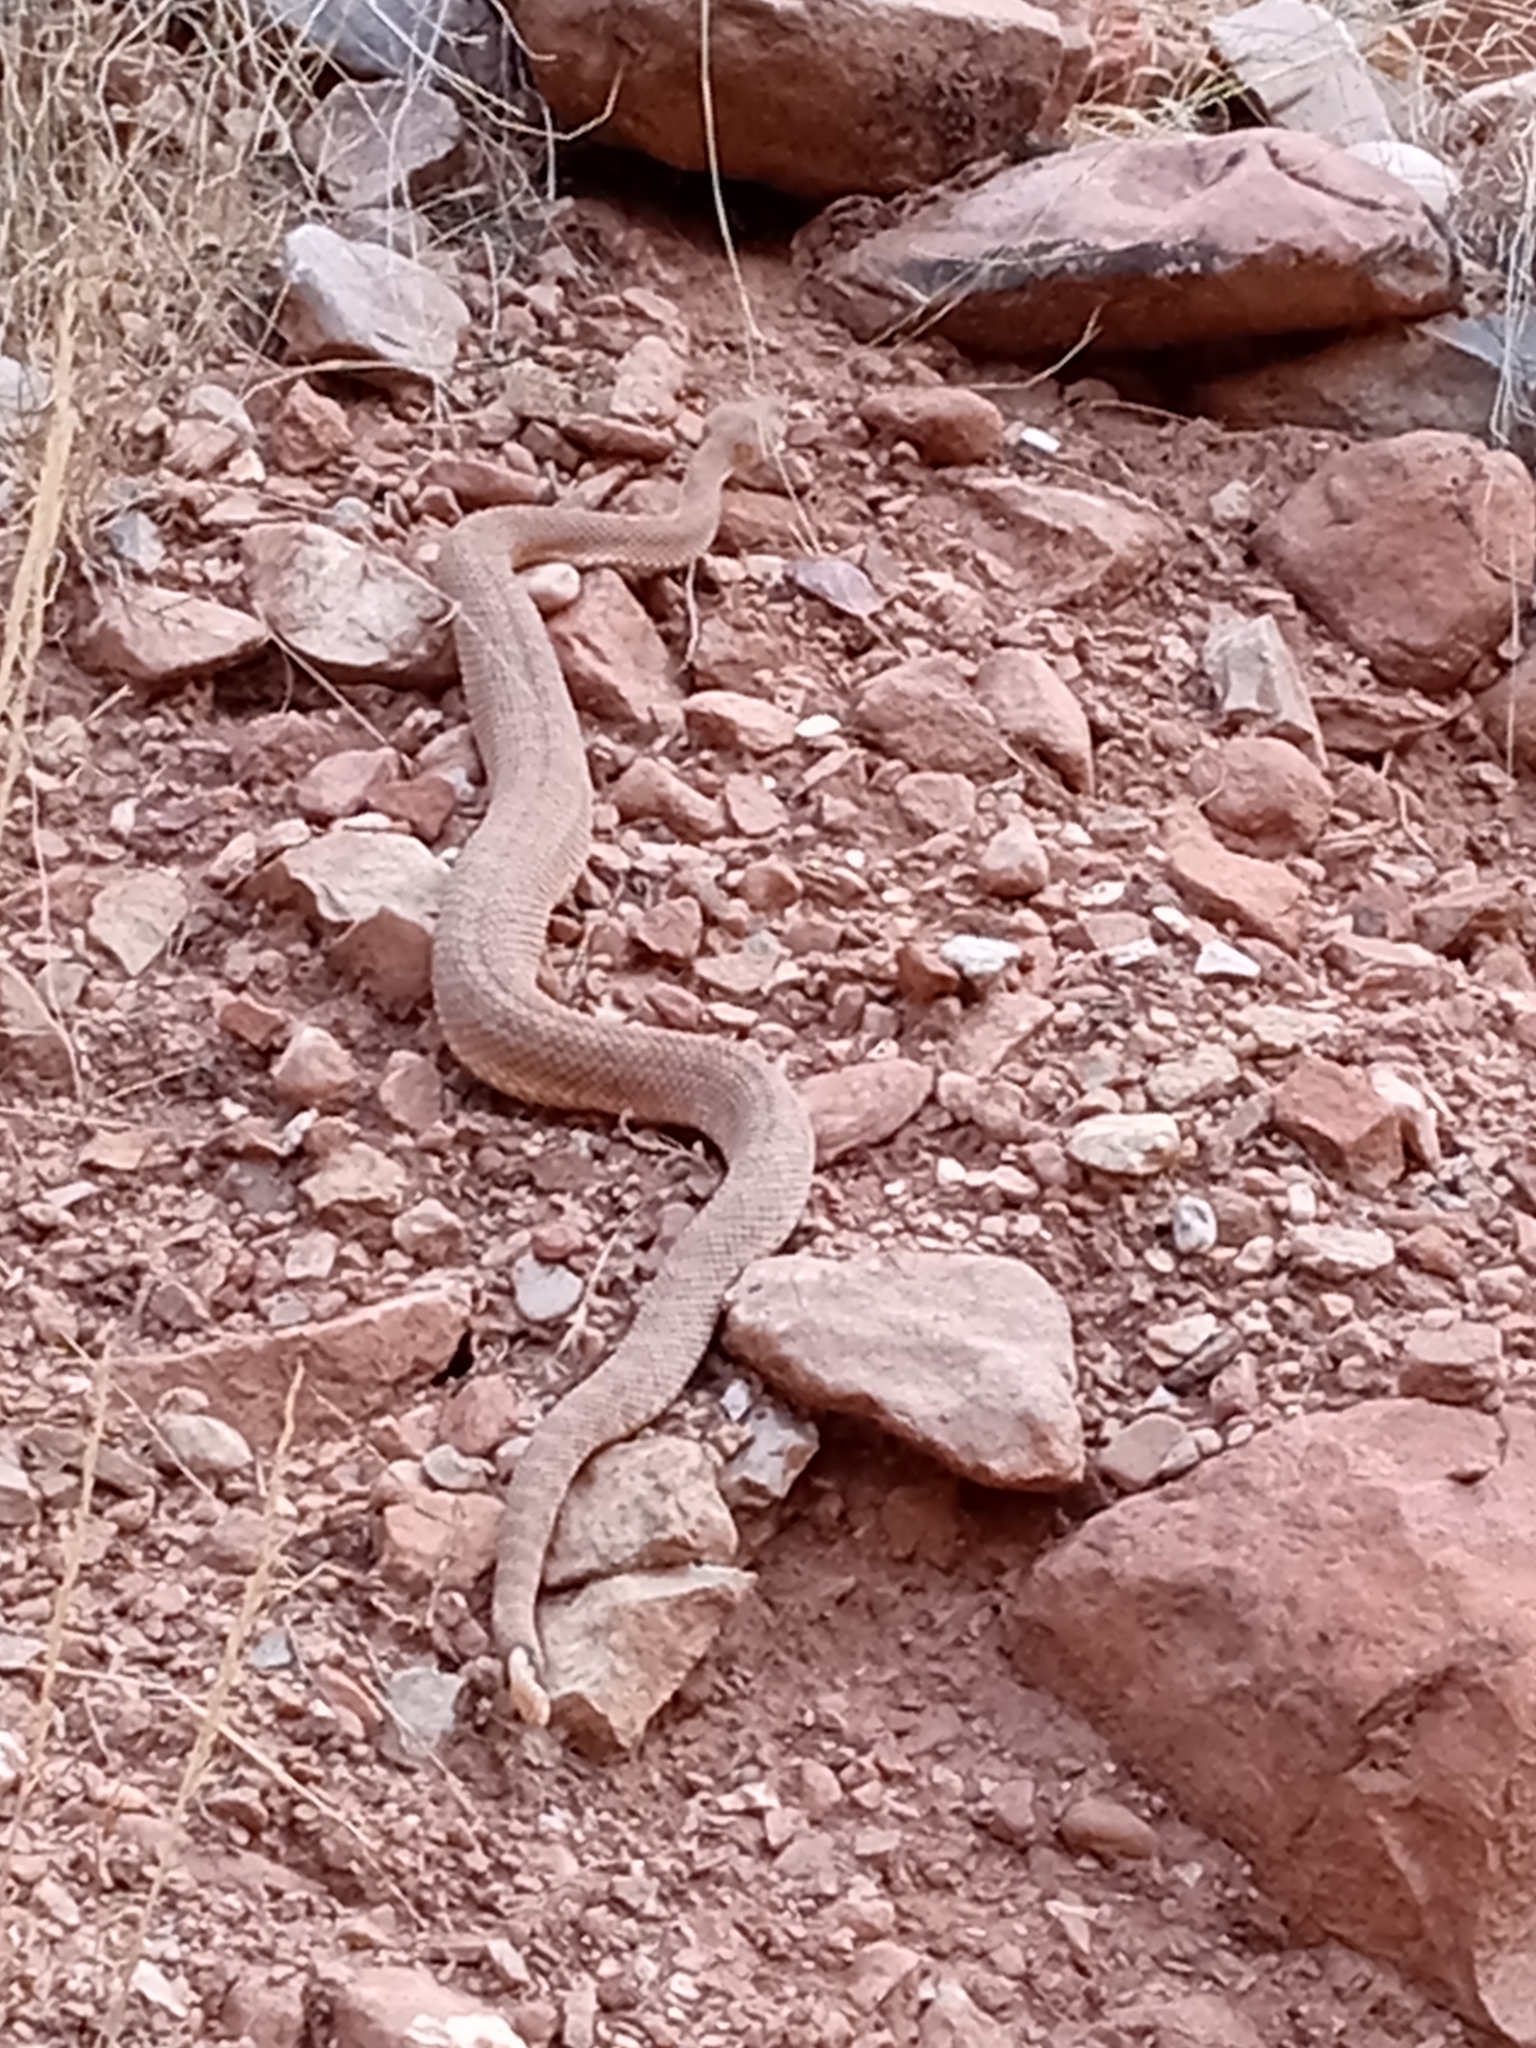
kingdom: Animalia
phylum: Chordata
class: Squamata
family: Viperidae
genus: Crotalus
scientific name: Crotalus oreganus
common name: Abyssus
